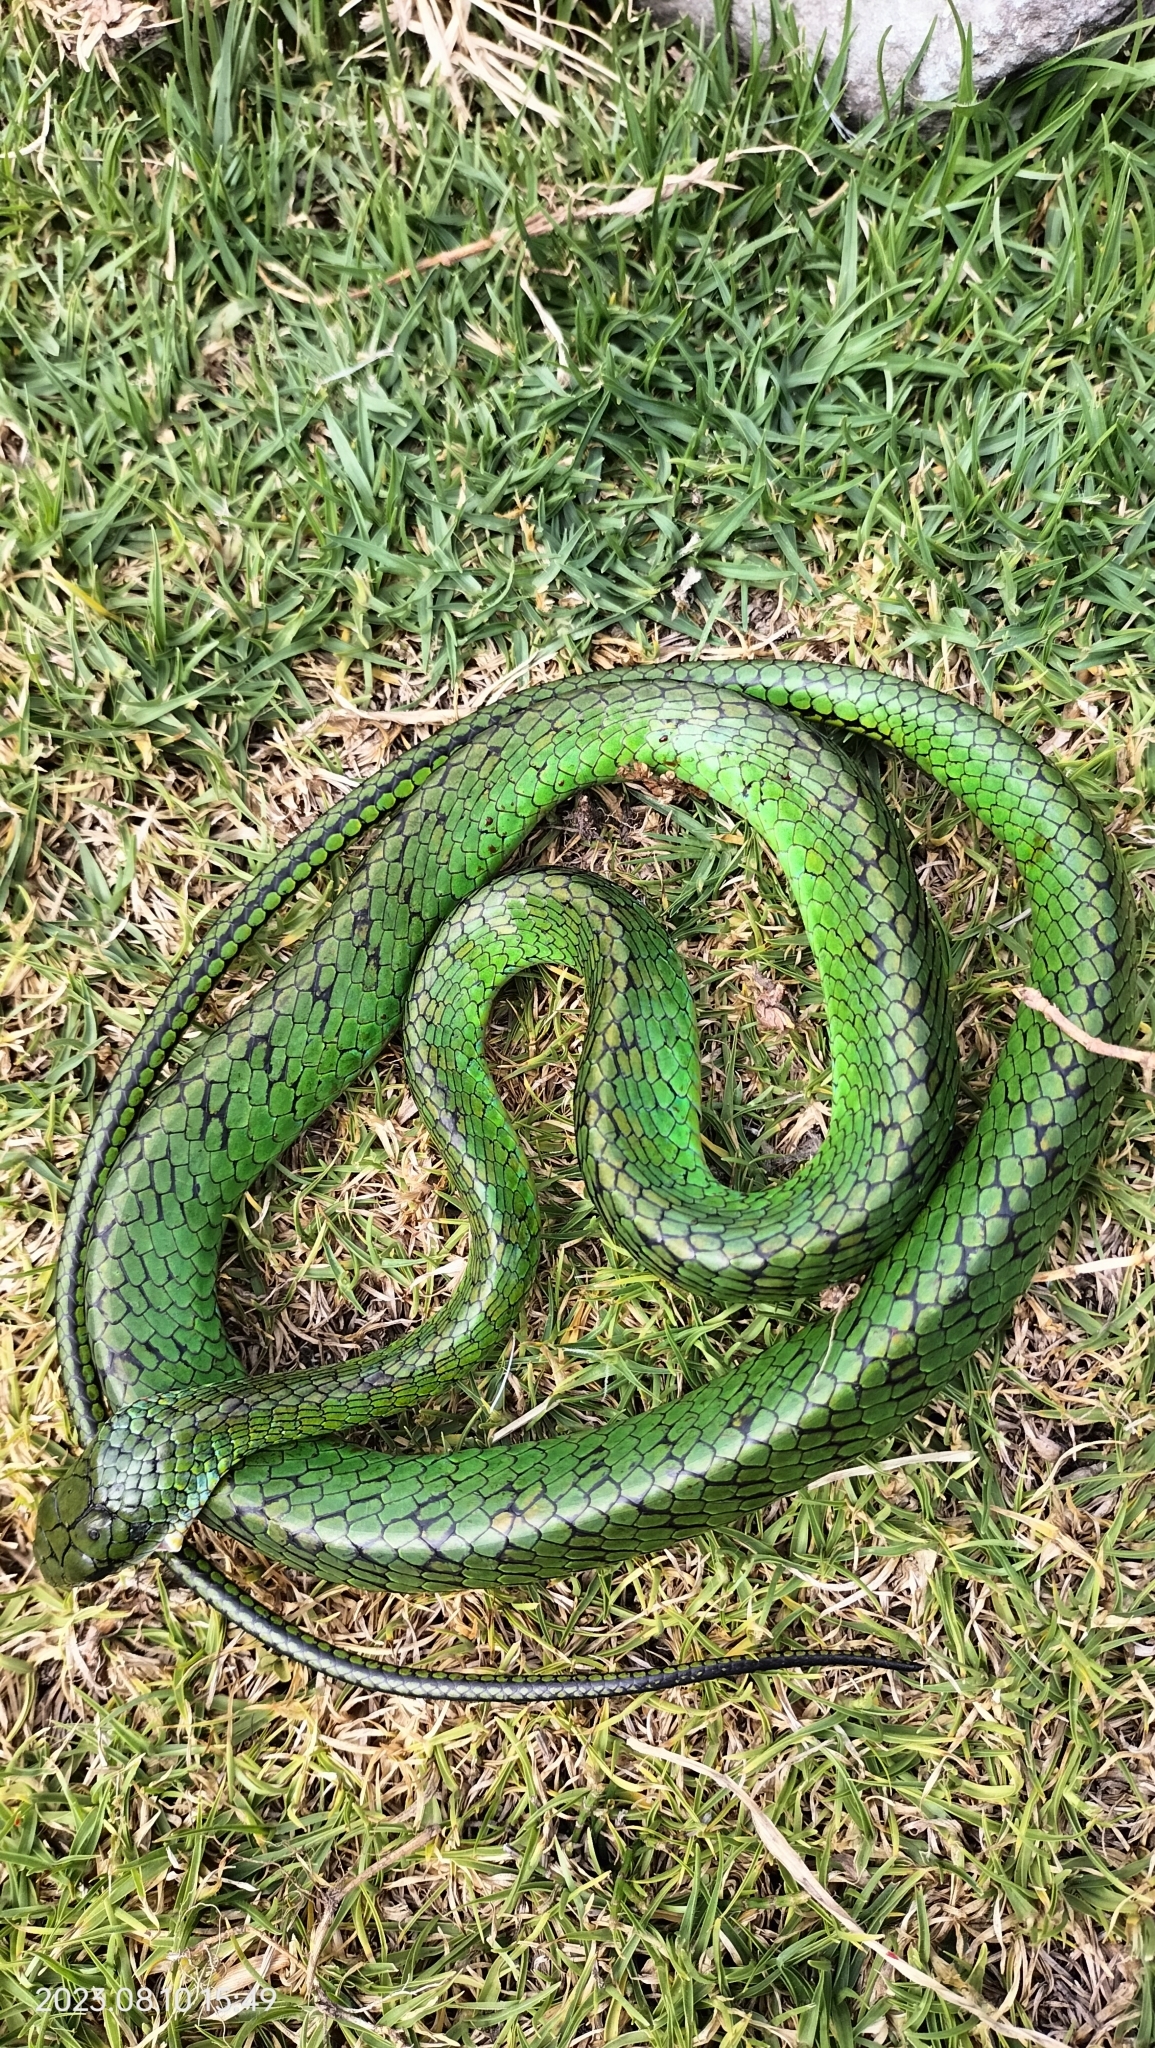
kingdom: Animalia
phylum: Chordata
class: Squamata
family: Colubridae
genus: Chironius
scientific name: Chironius monticola
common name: Mountain sipo
